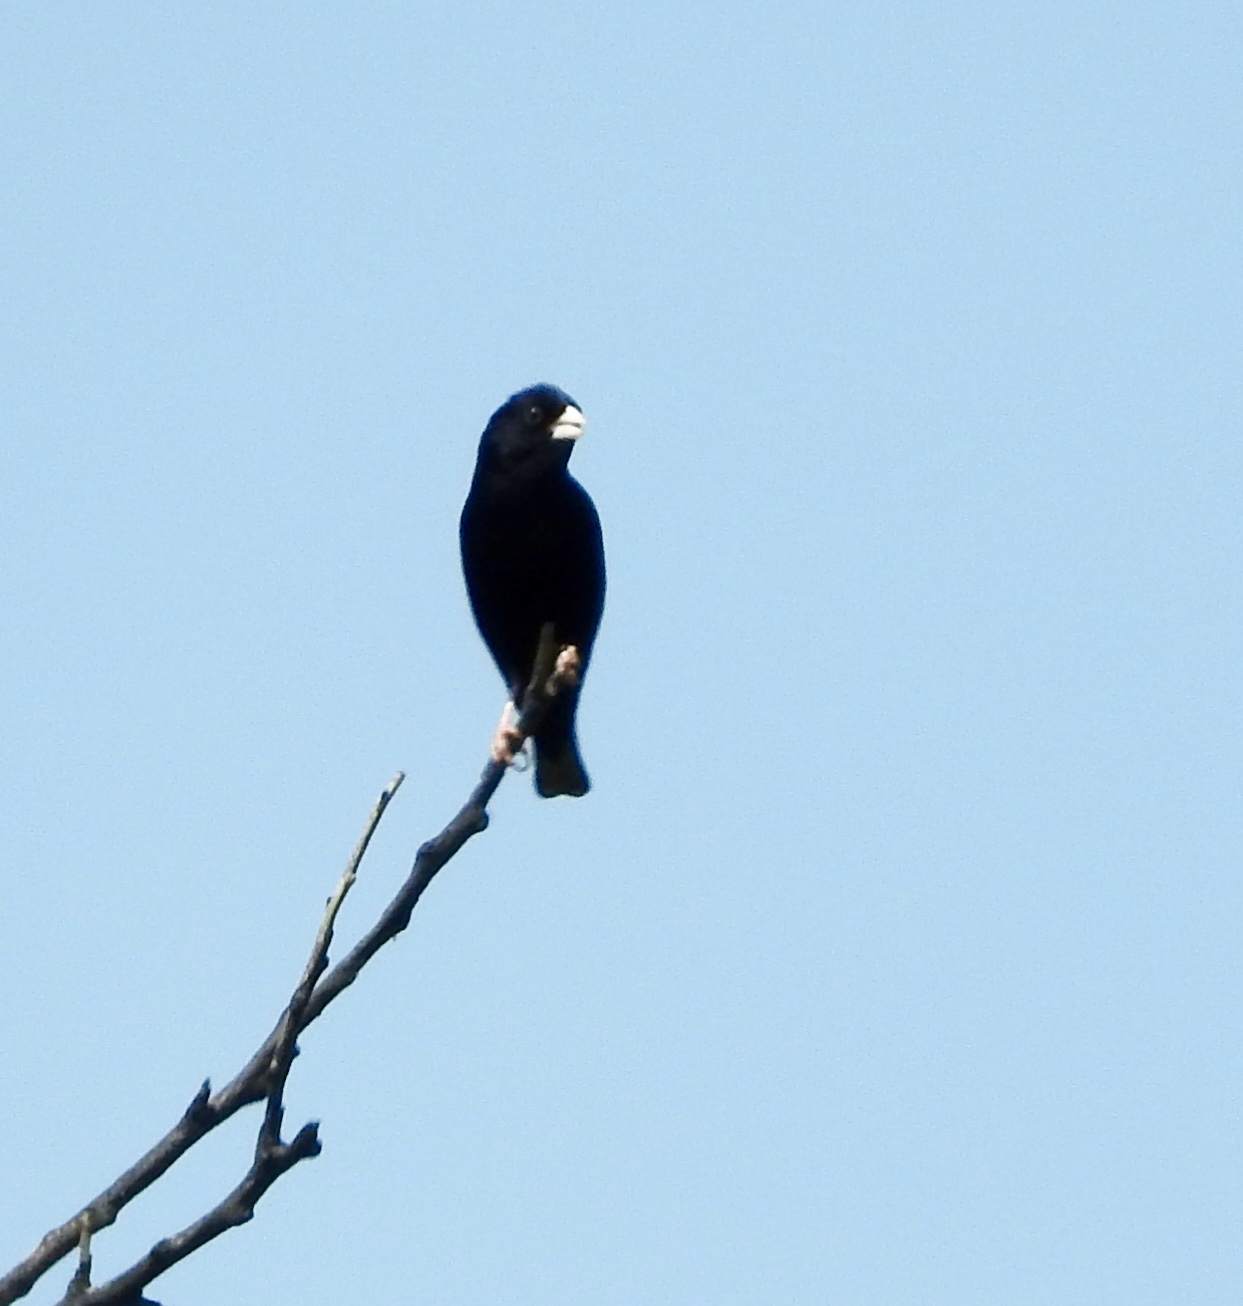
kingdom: Animalia
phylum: Chordata
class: Aves
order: Passeriformes
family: Viduidae
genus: Vidua
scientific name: Vidua purpurascens
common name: Purple indigobird
